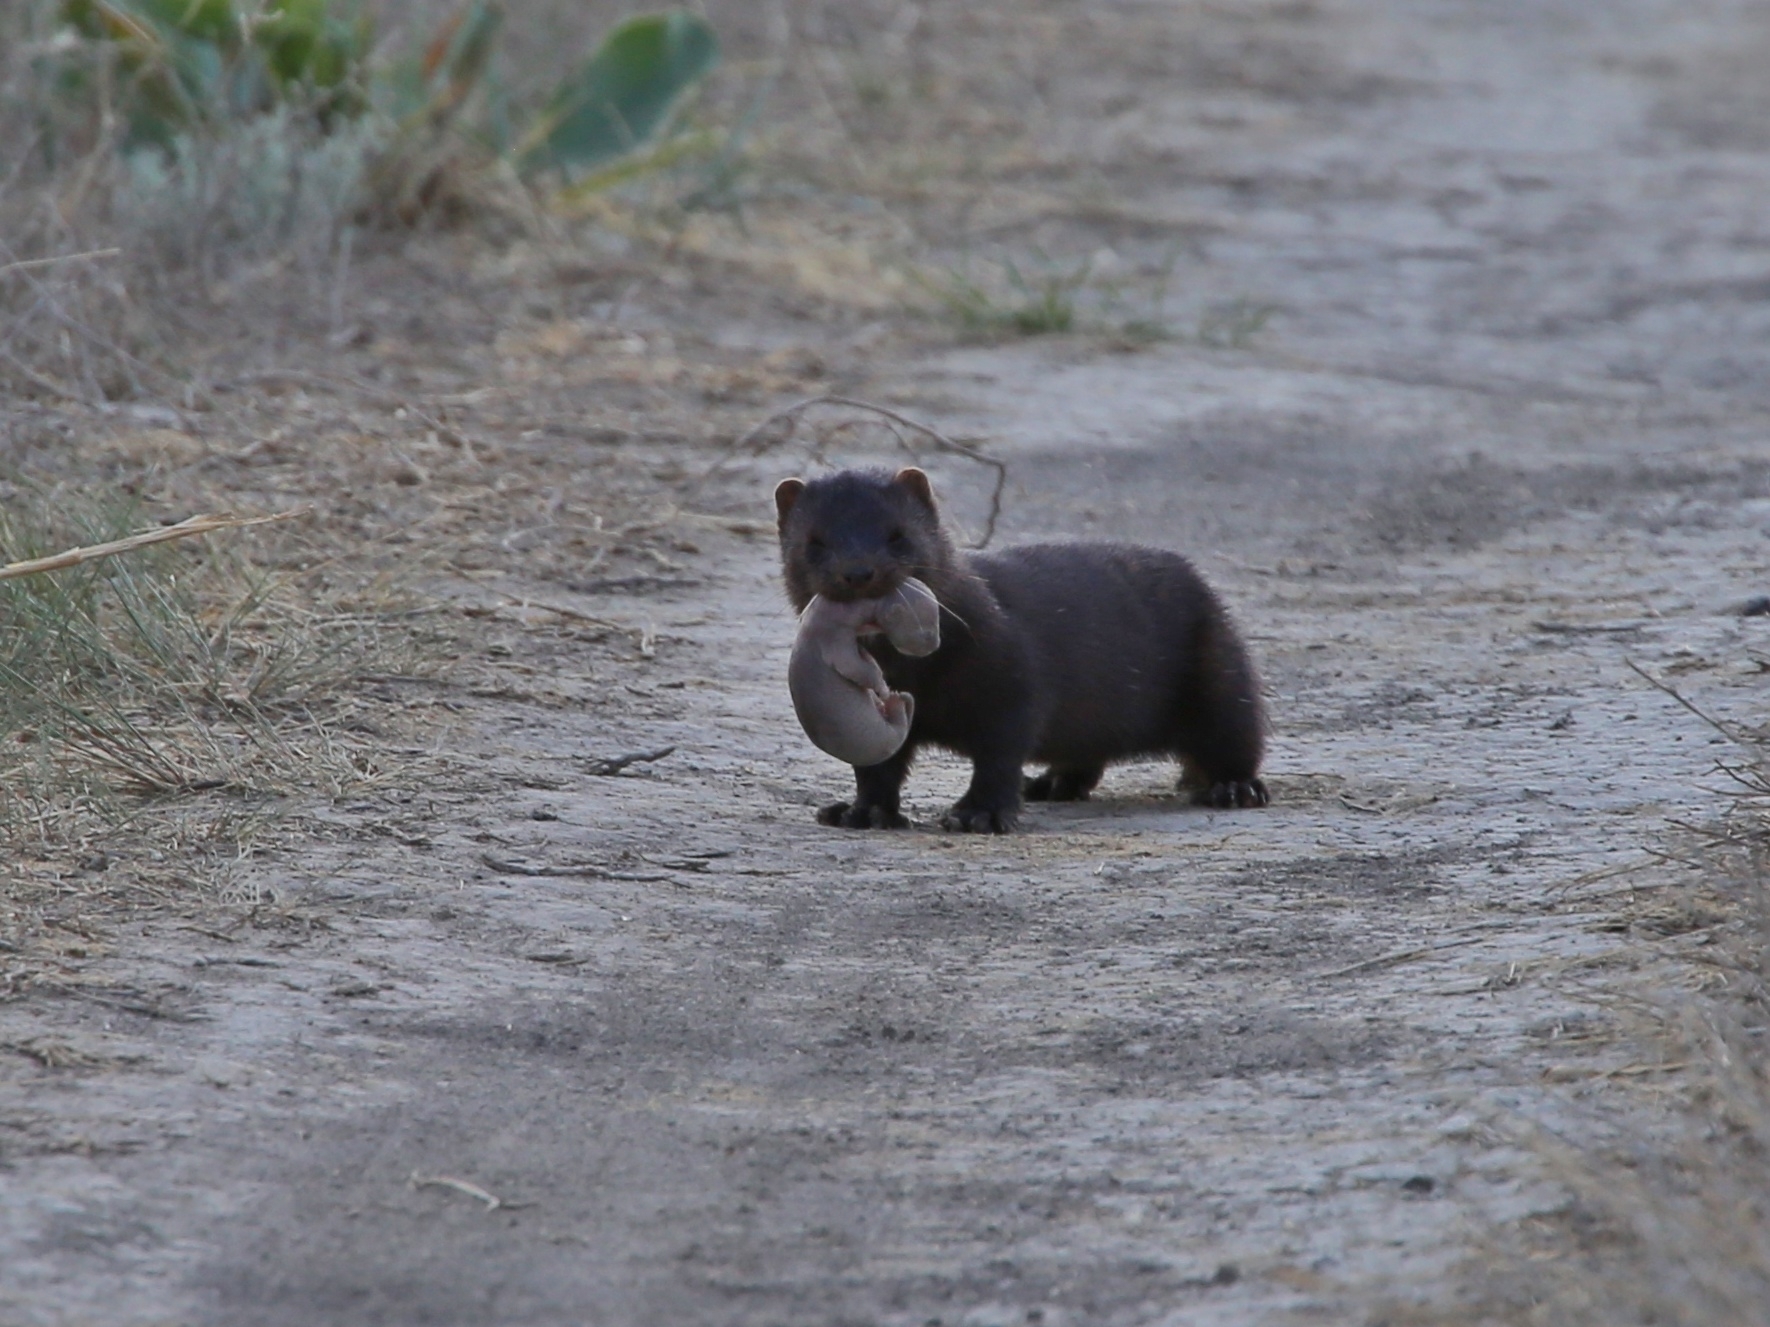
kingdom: Animalia
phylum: Chordata
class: Mammalia
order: Carnivora
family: Mustelidae
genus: Mustela
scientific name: Mustela
